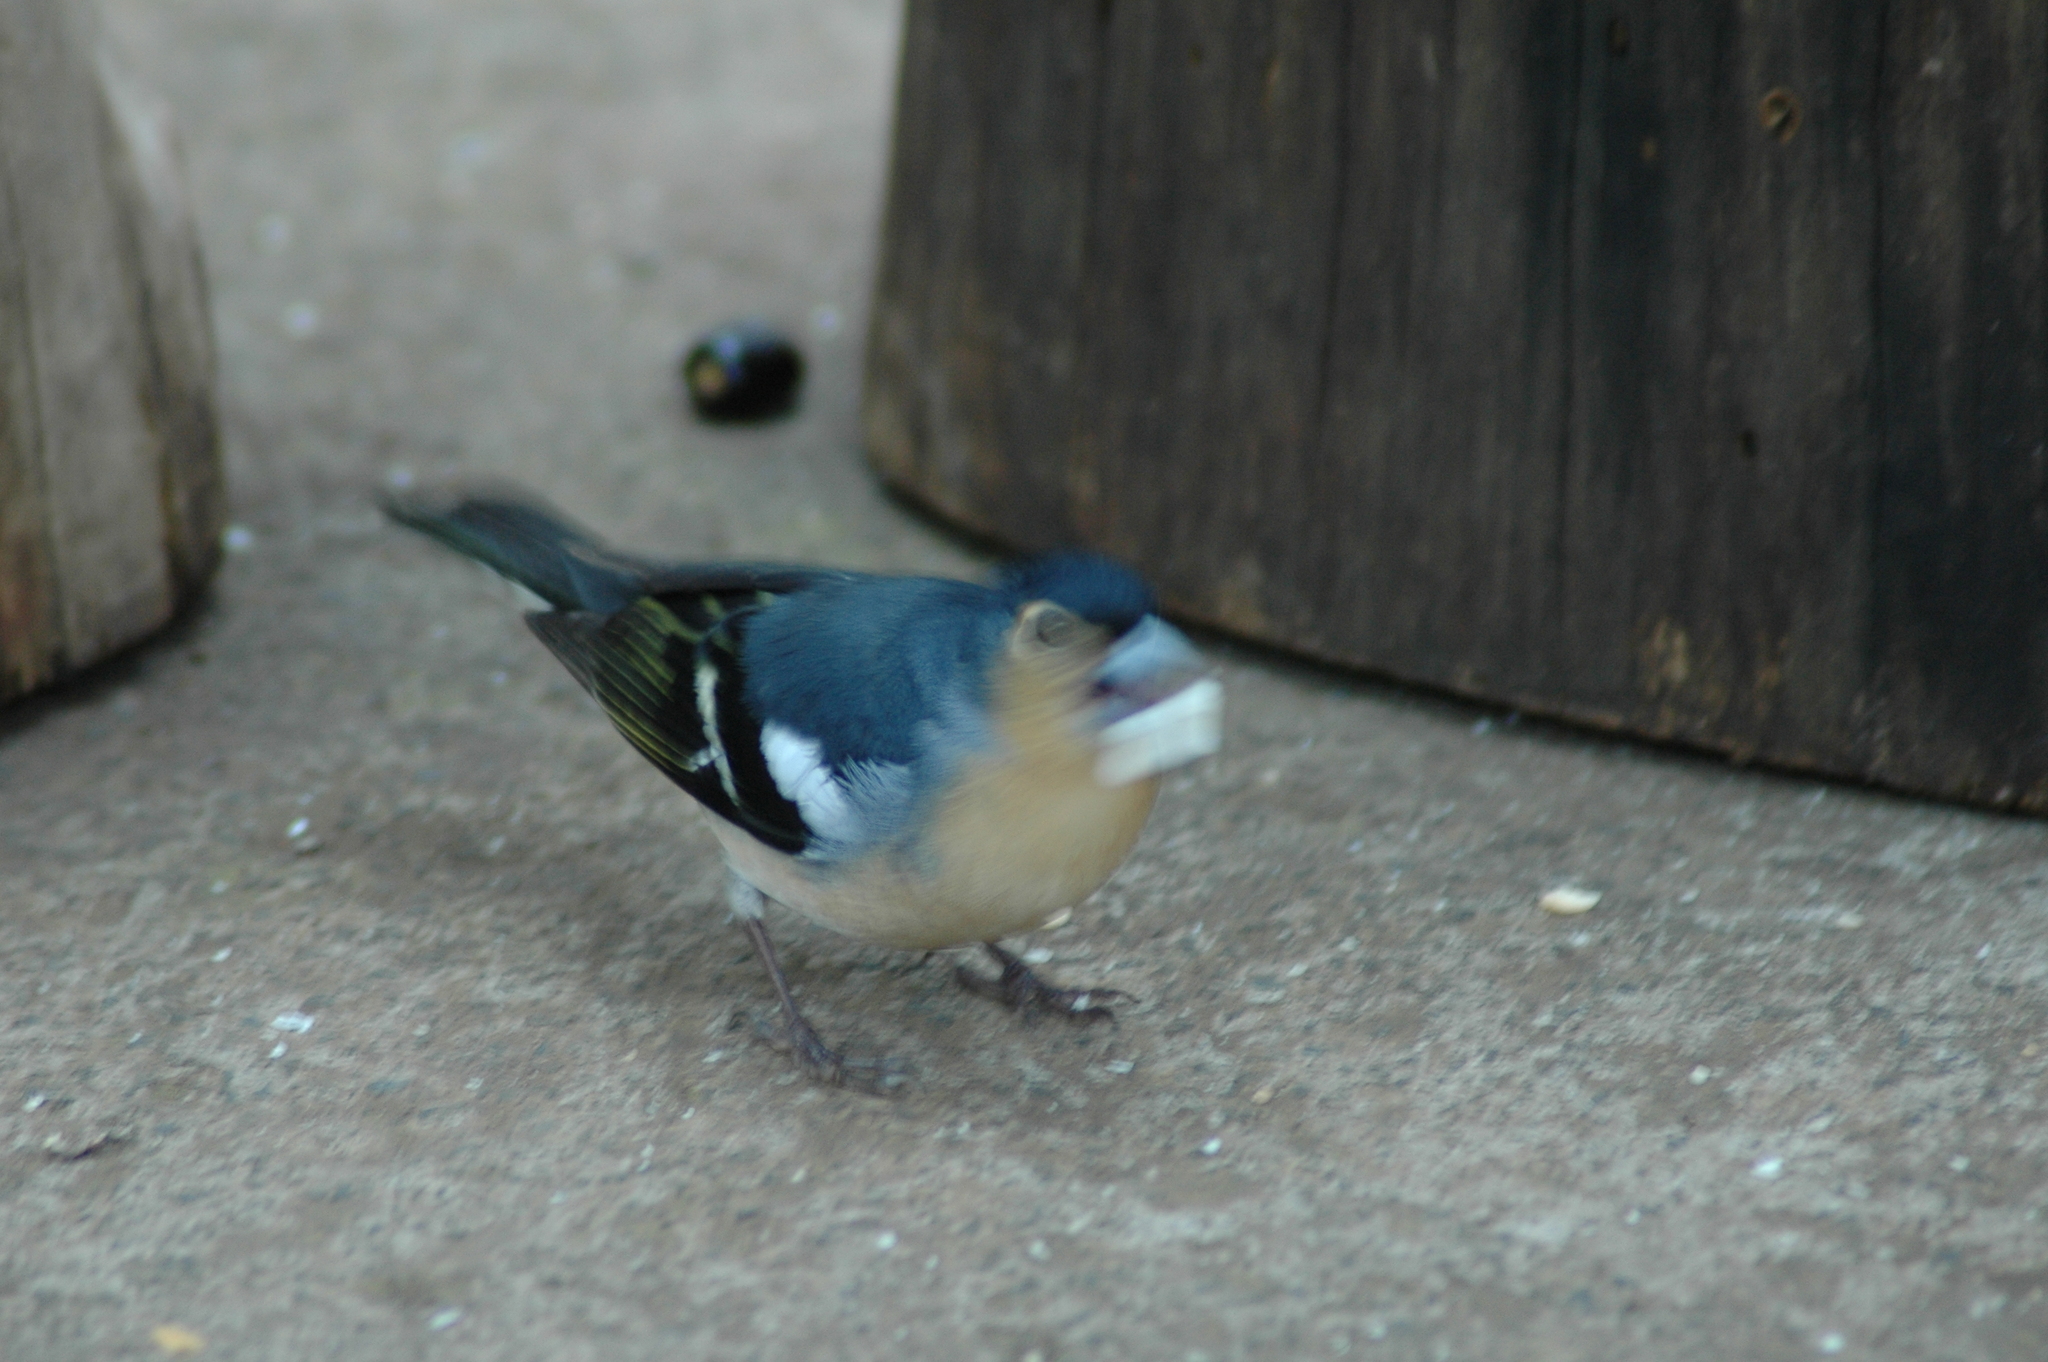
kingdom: Animalia
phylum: Chordata
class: Aves
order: Passeriformes
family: Fringillidae
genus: Fringilla
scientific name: Fringilla canariensis
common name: Canary islands chaffinch
